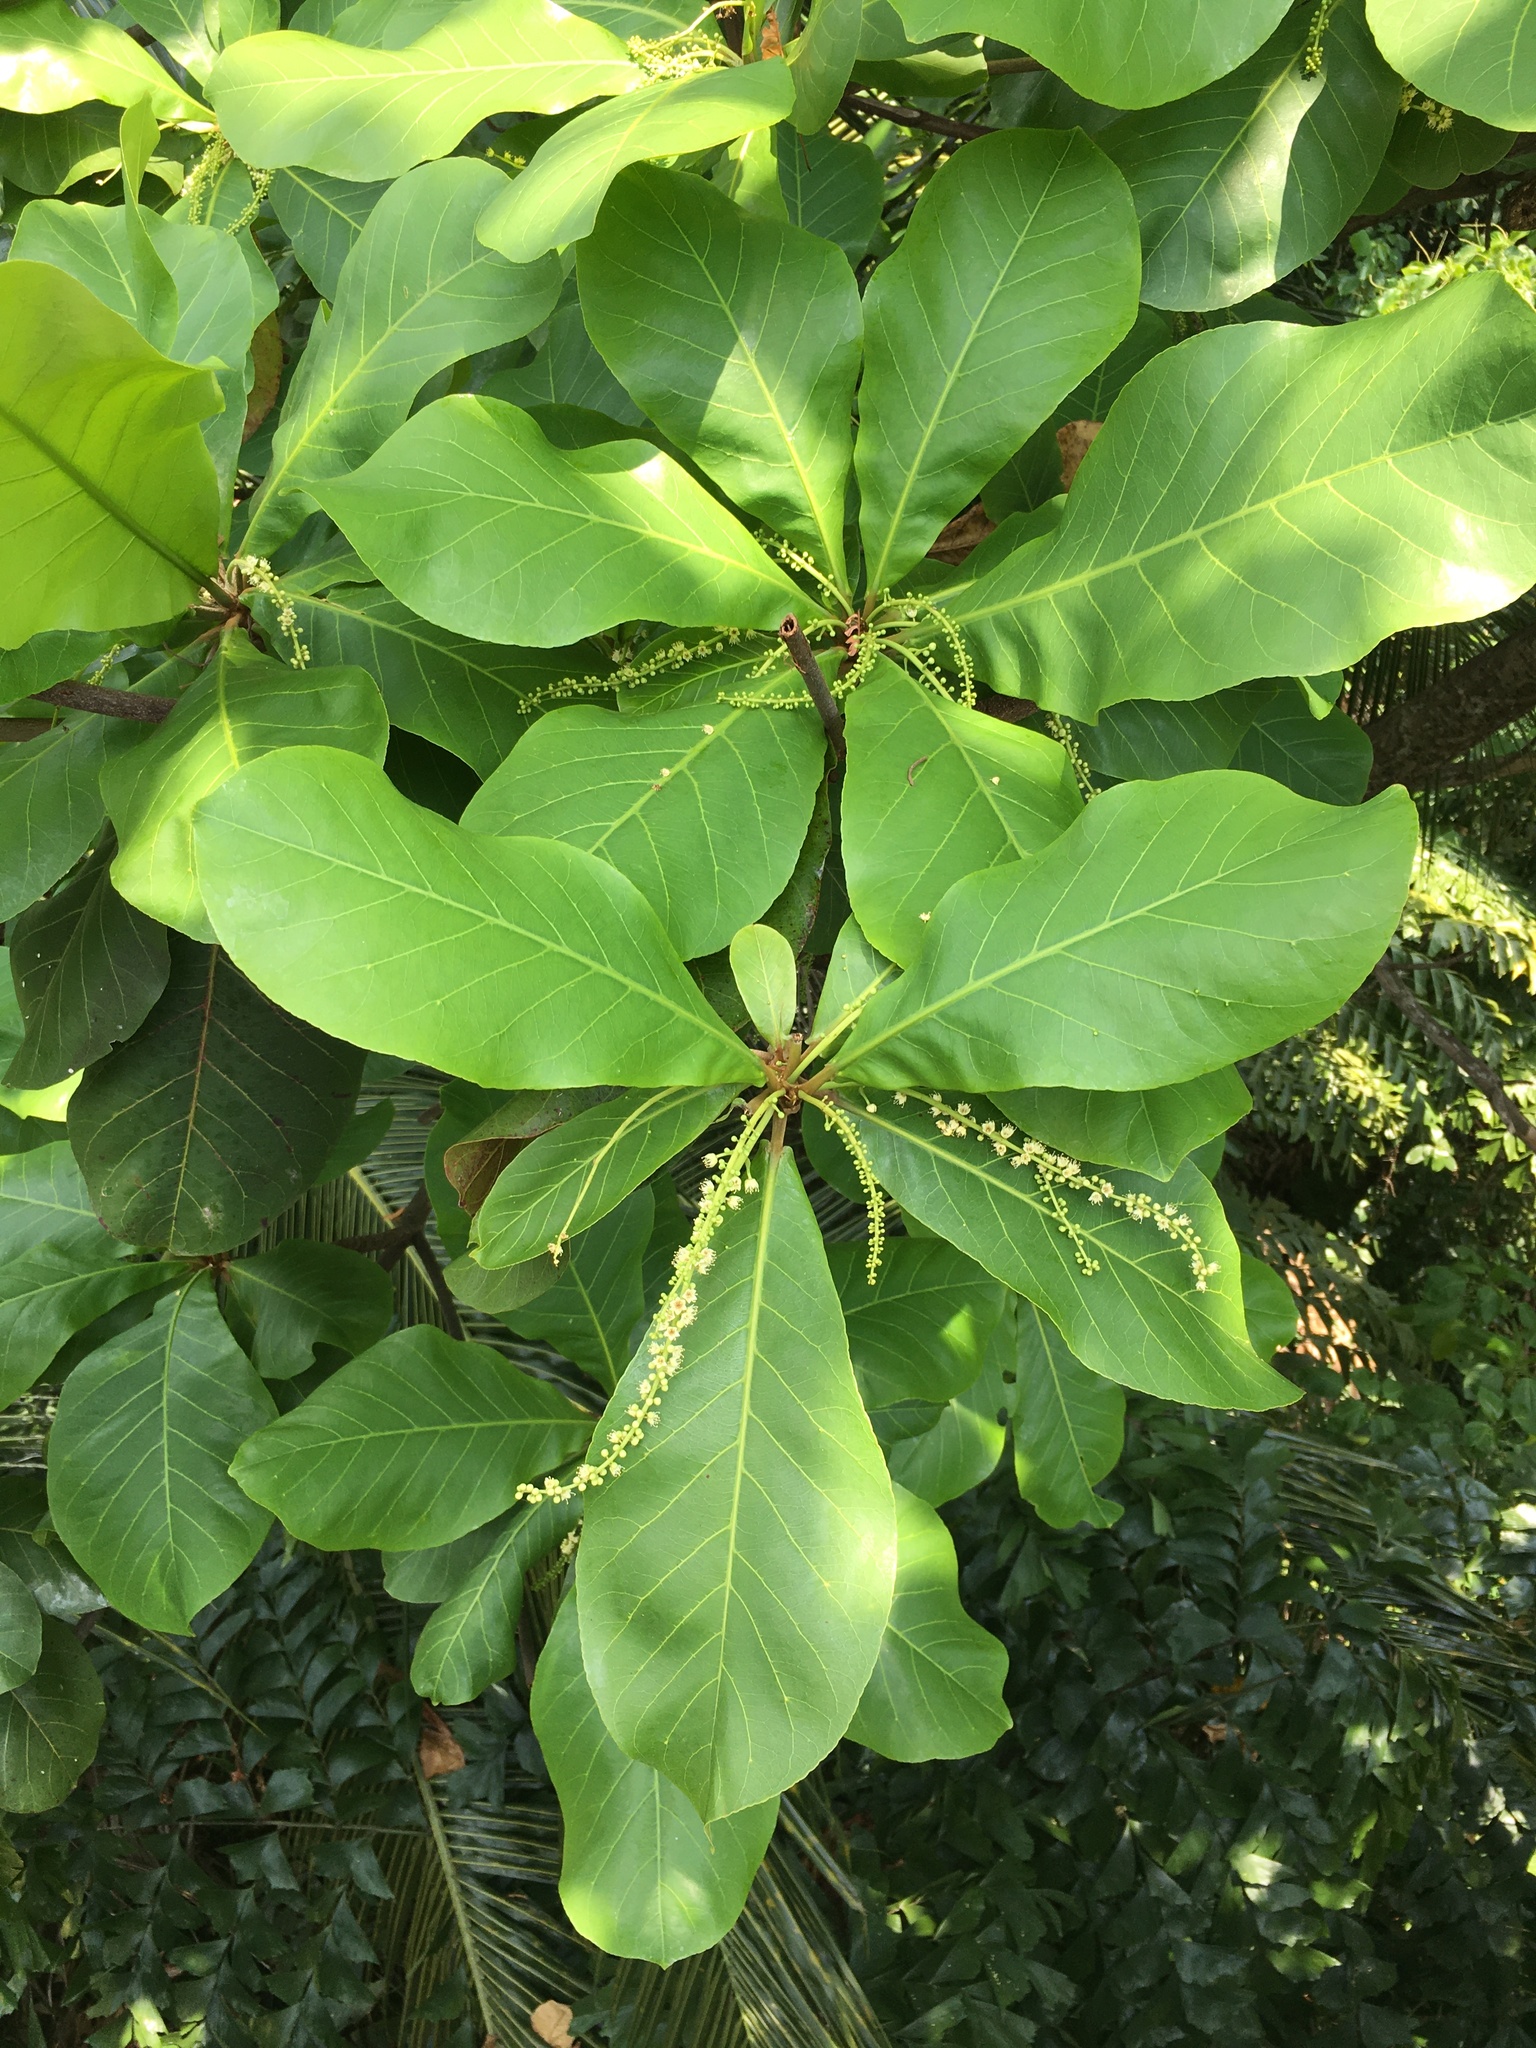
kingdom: Plantae
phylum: Tracheophyta
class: Magnoliopsida
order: Myrtales
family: Combretaceae
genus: Terminalia
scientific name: Terminalia catappa
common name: Tropical almond
